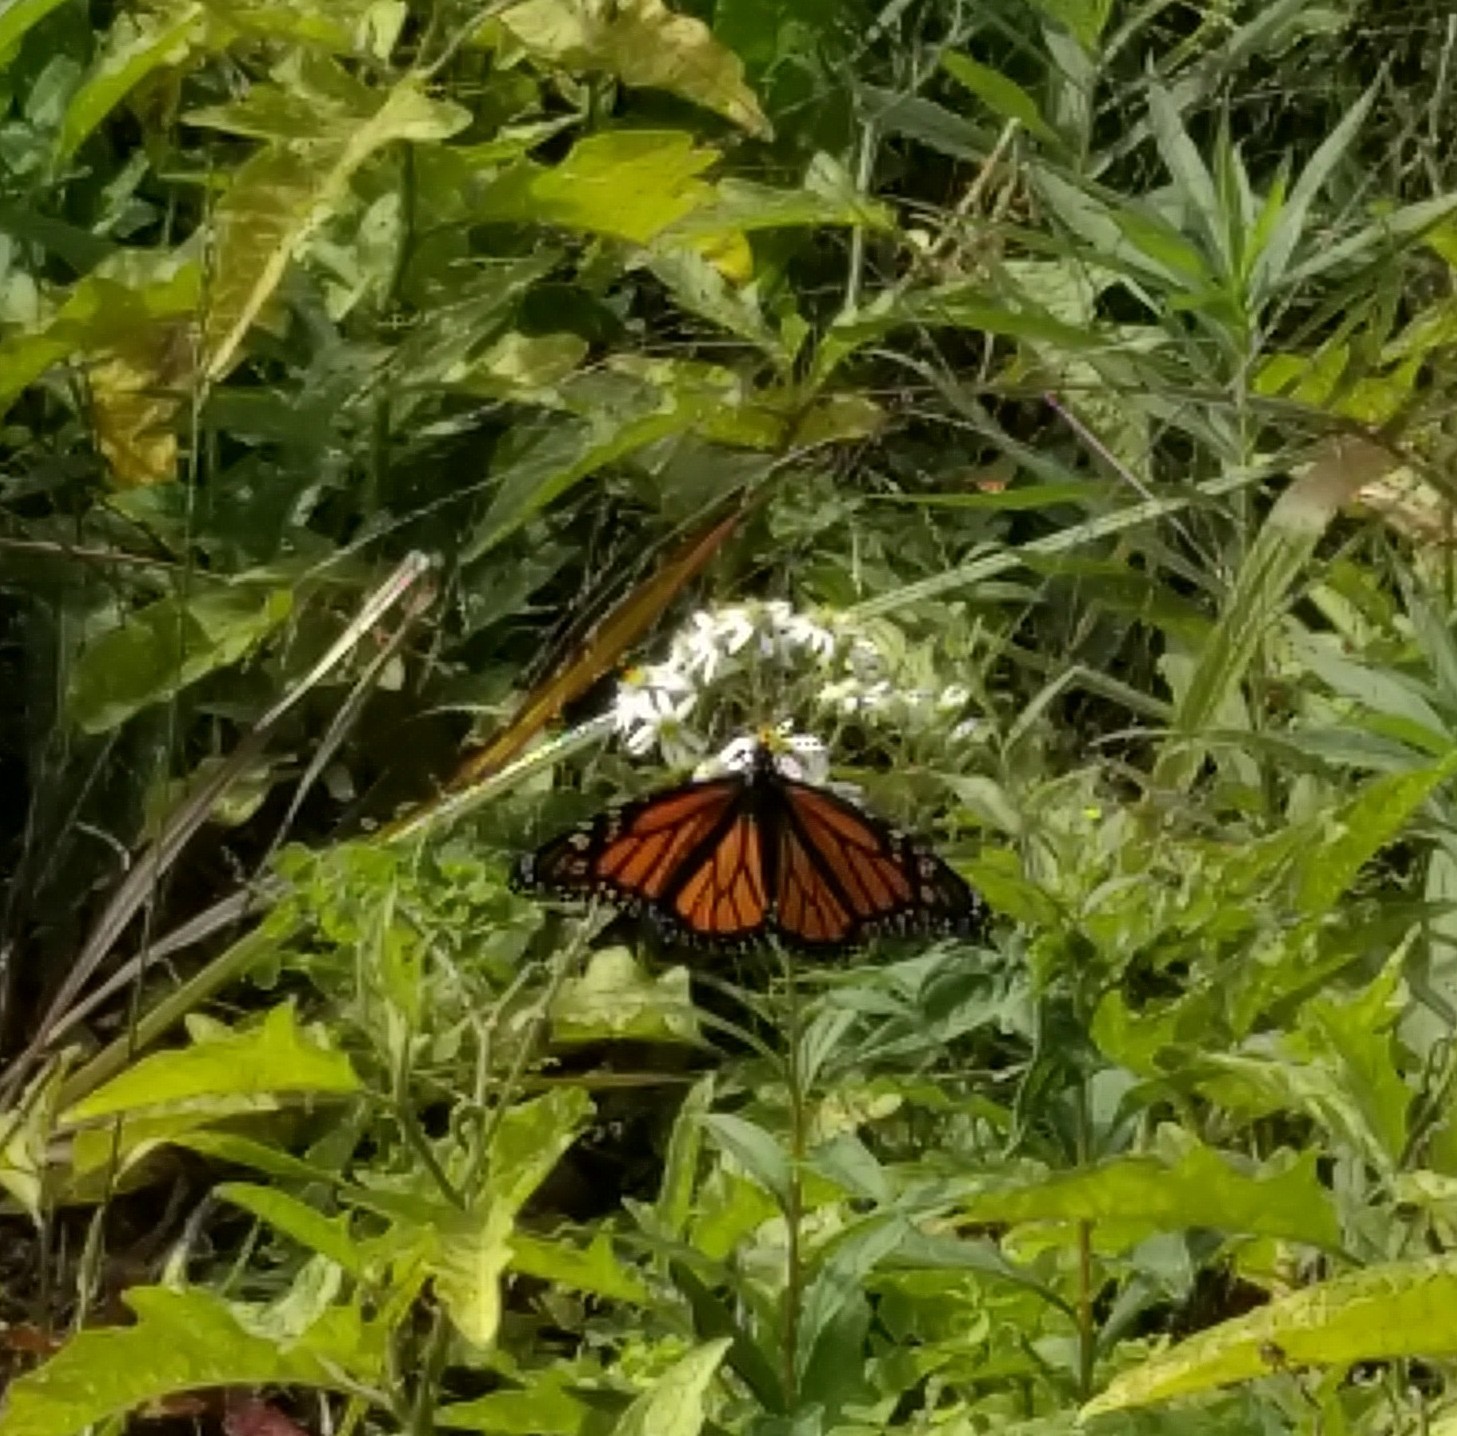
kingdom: Animalia
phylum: Arthropoda
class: Insecta
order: Lepidoptera
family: Nymphalidae
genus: Danaus
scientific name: Danaus plexippus
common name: Monarch
